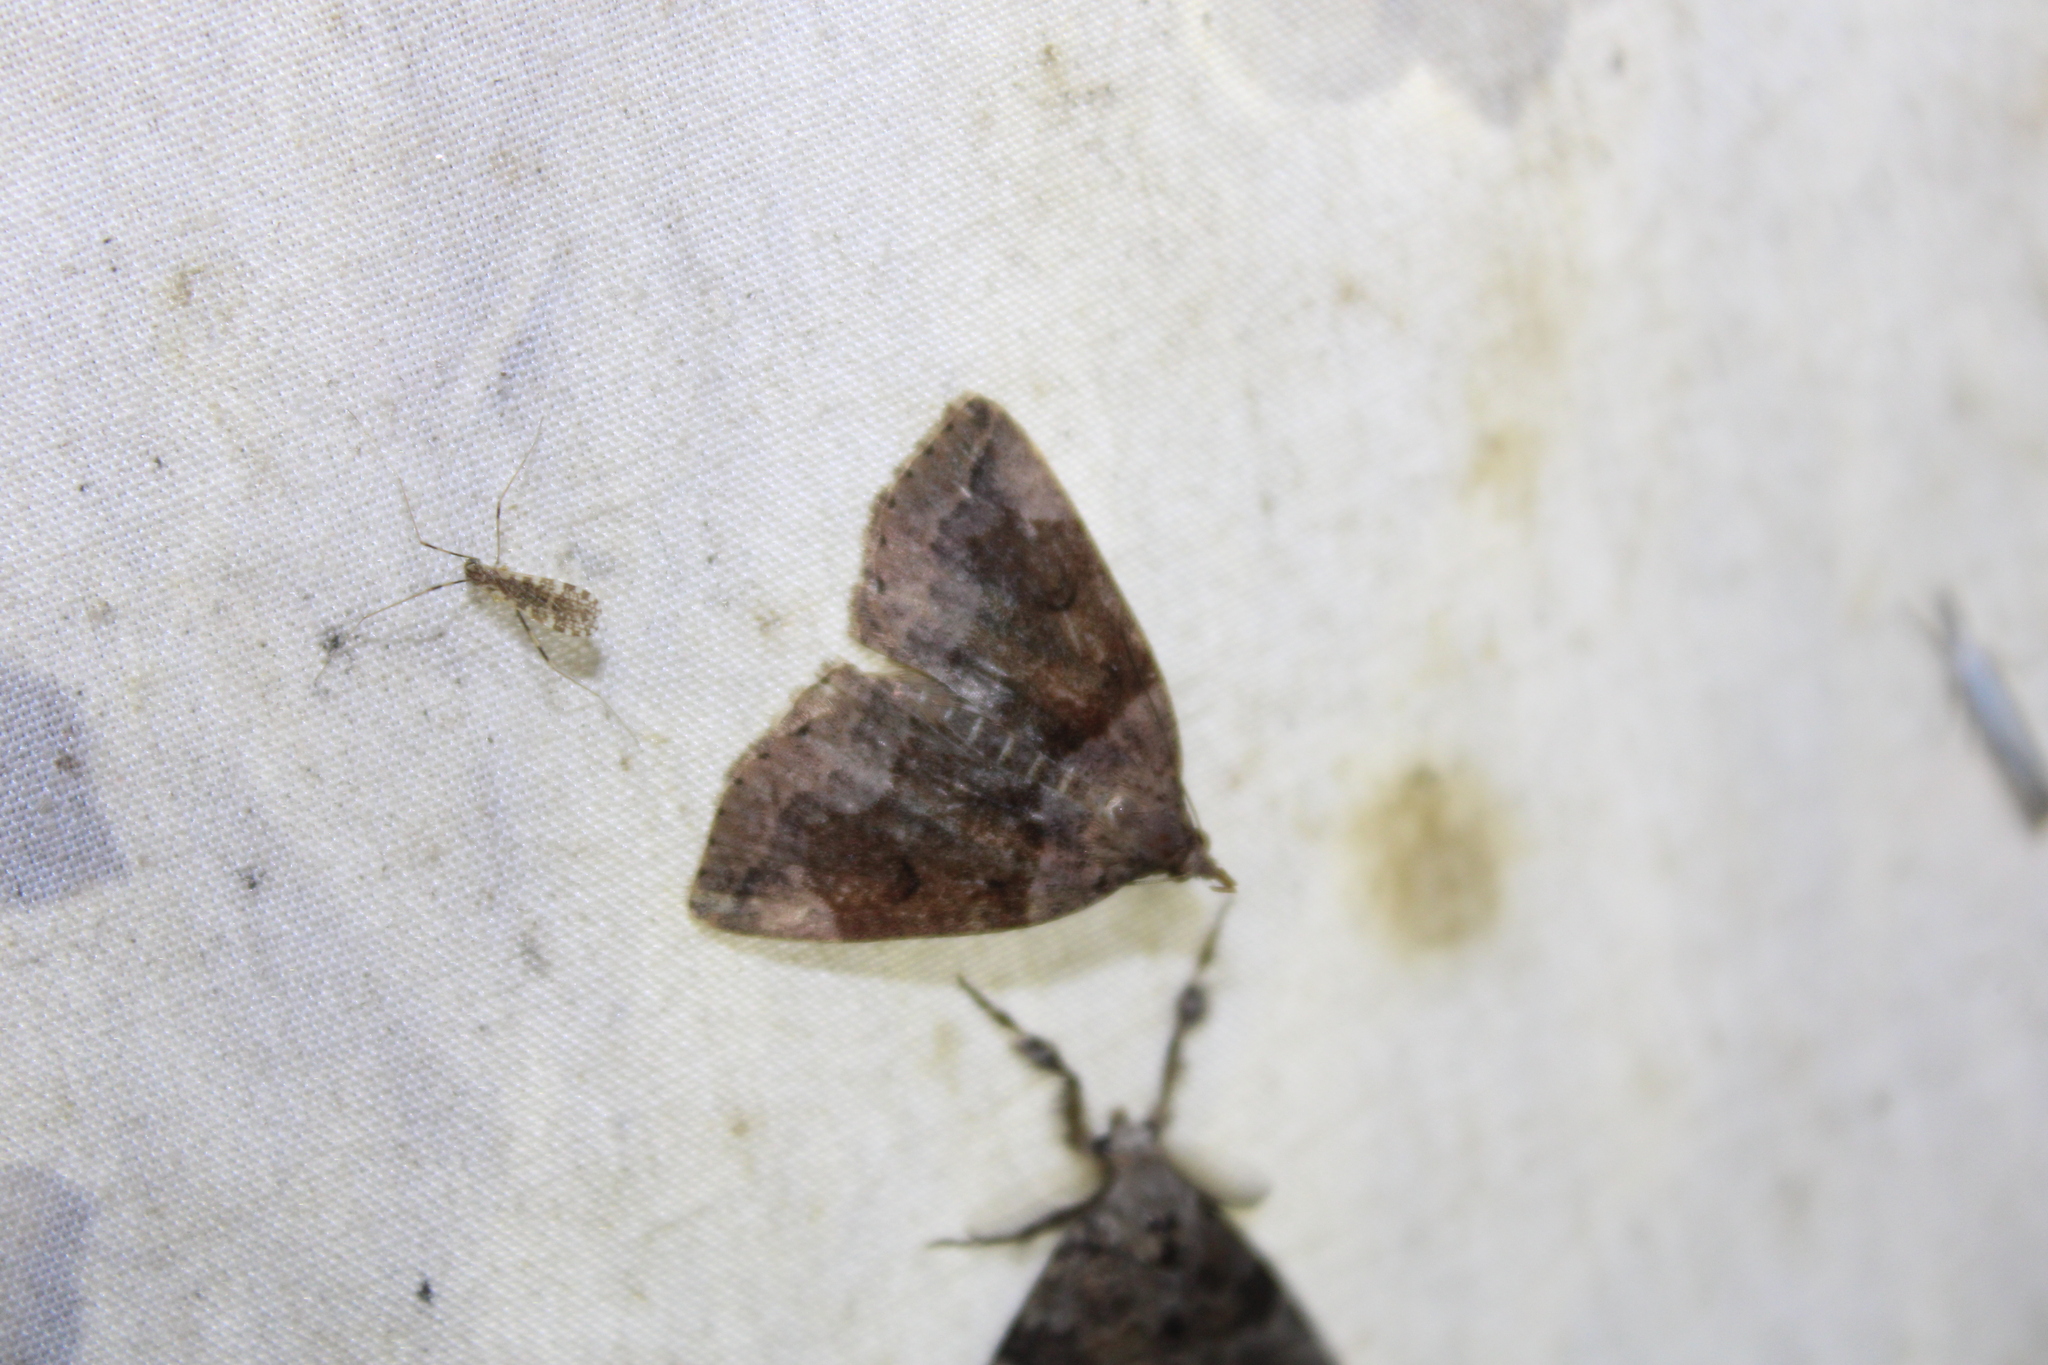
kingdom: Animalia
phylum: Arthropoda
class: Insecta
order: Lepidoptera
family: Erebidae
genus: Zanclognatha
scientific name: Zanclognatha laevigata
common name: Variable fan-foot
